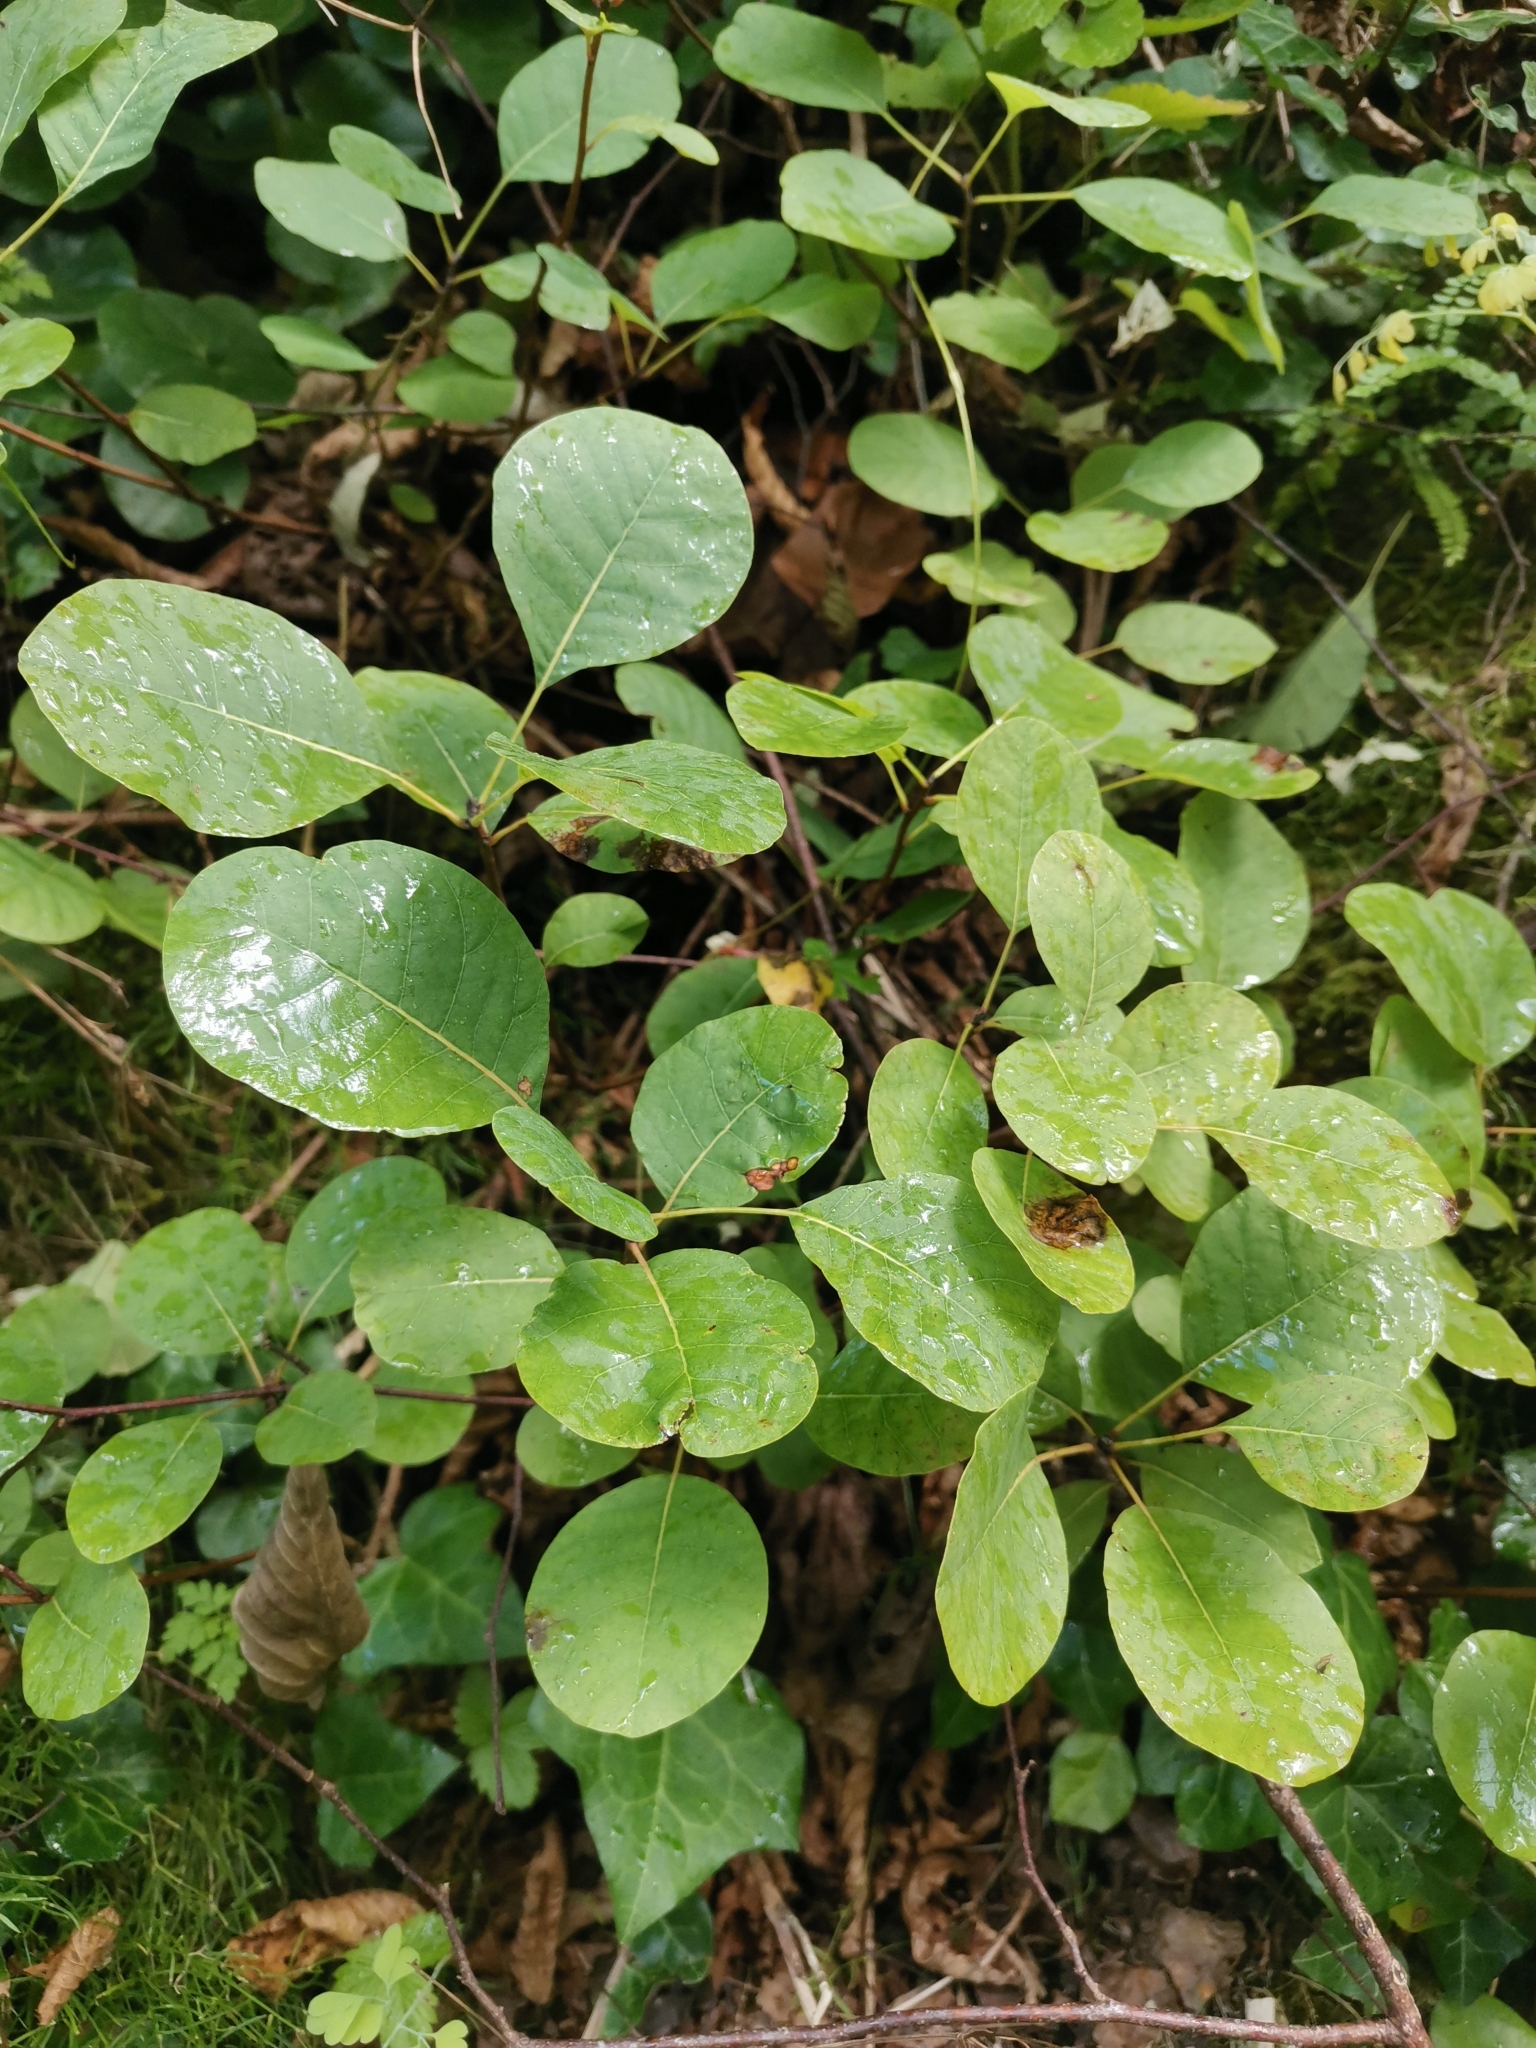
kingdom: Plantae
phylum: Tracheophyta
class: Magnoliopsida
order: Sapindales
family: Anacardiaceae
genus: Cotinus
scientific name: Cotinus coggygria
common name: Smoke-tree
